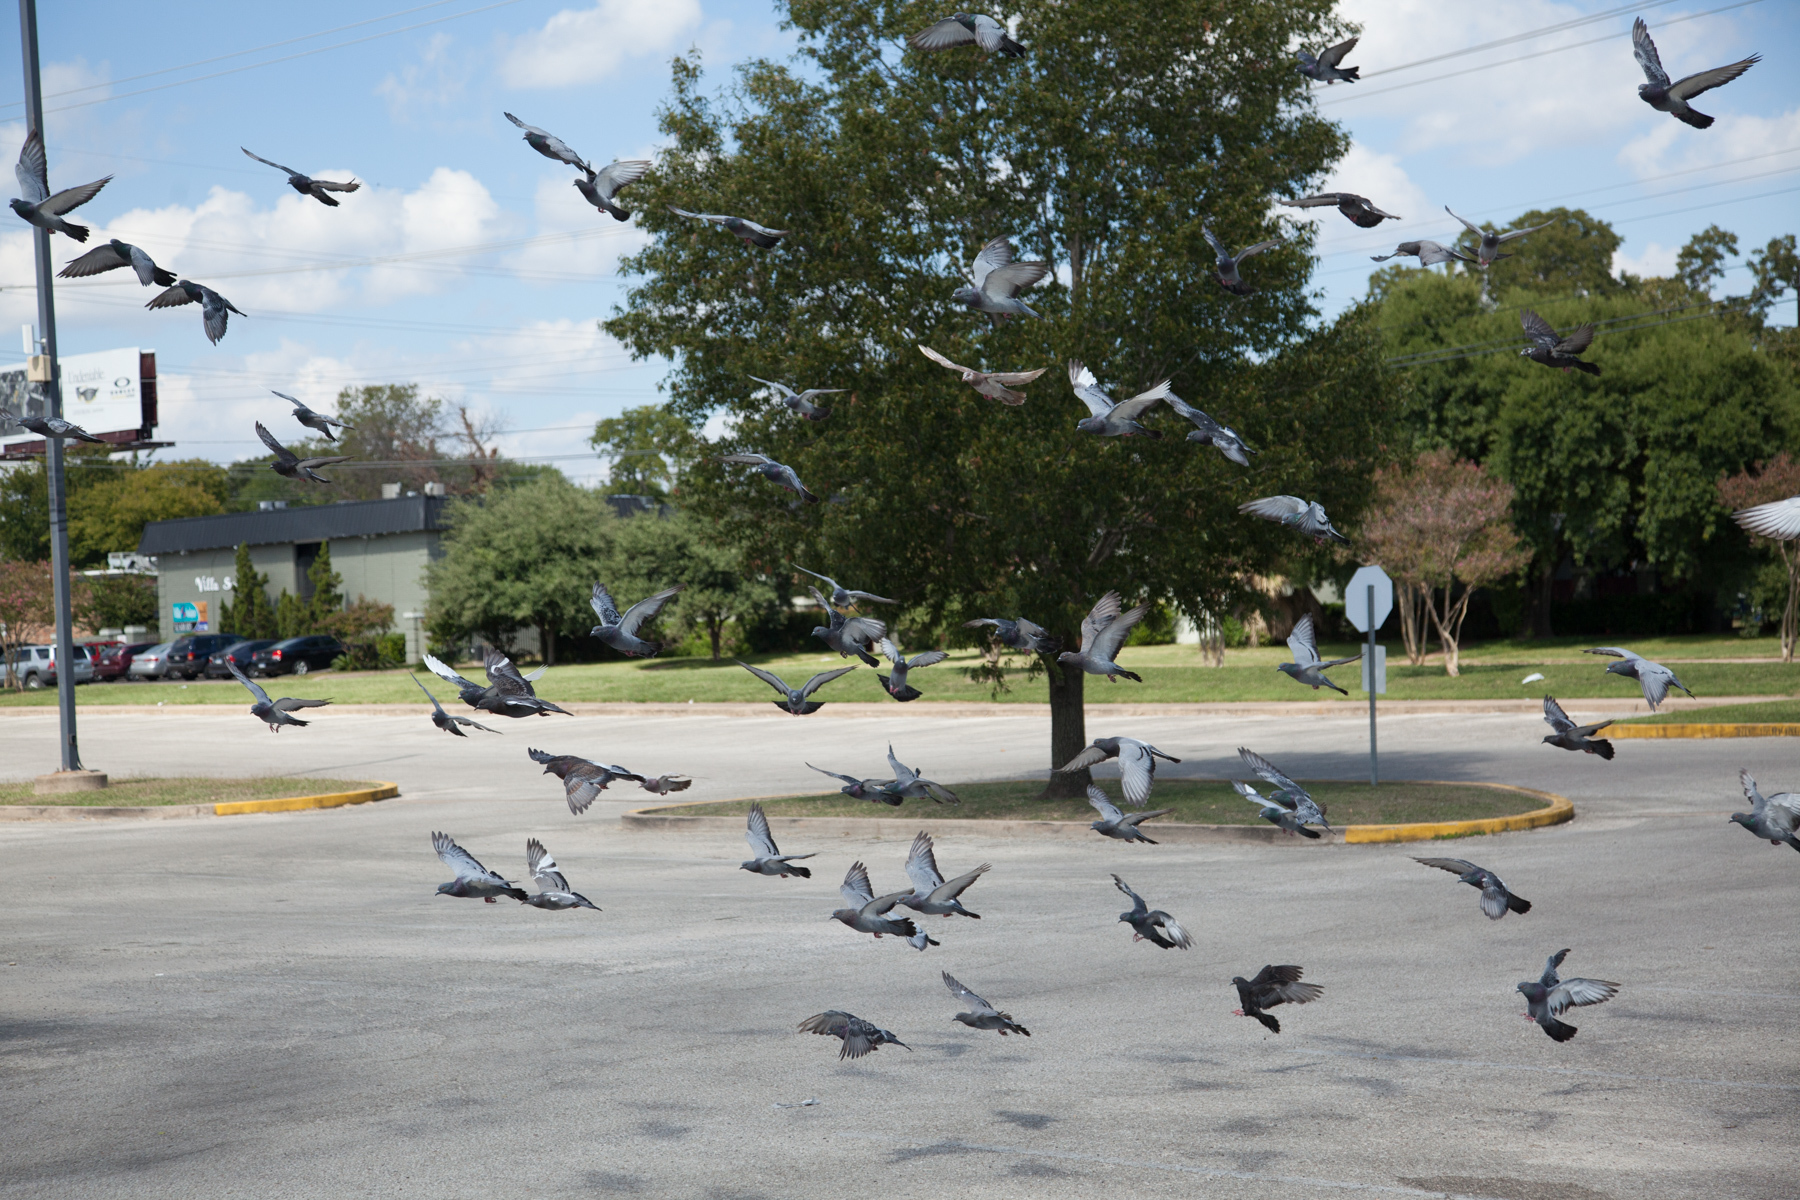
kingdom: Animalia
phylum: Chordata
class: Aves
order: Columbiformes
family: Columbidae
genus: Columba
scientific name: Columba livia
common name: Rock pigeon
